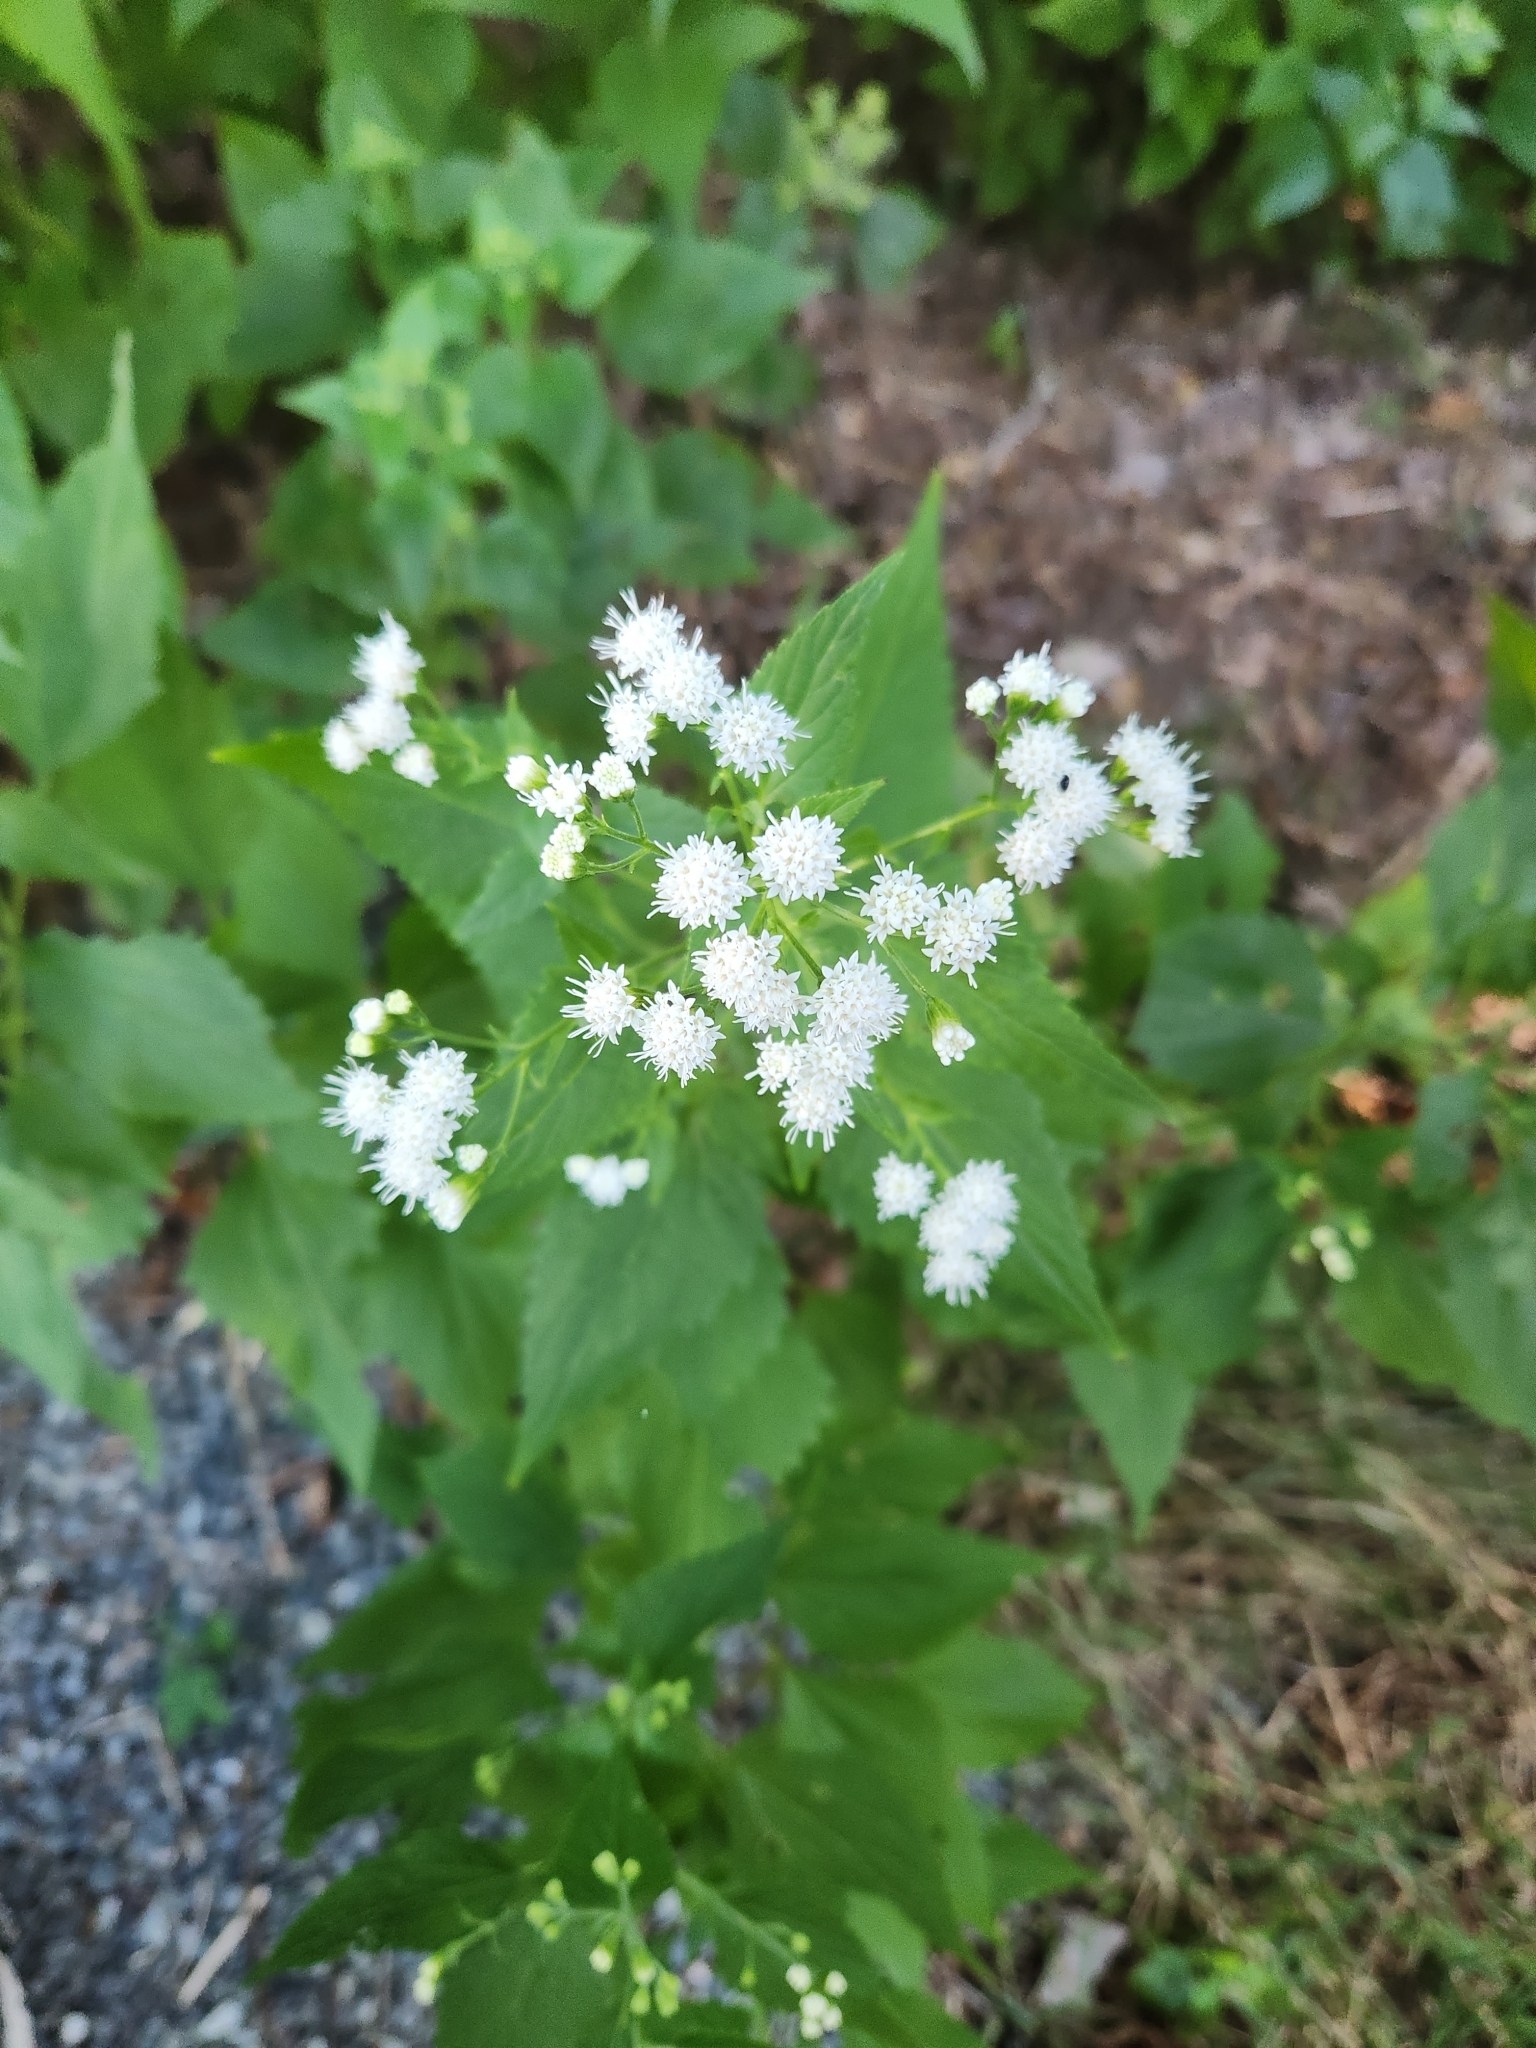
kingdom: Plantae
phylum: Tracheophyta
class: Magnoliopsida
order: Asterales
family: Asteraceae
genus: Ageratina
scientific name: Ageratina altissima
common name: White snakeroot
